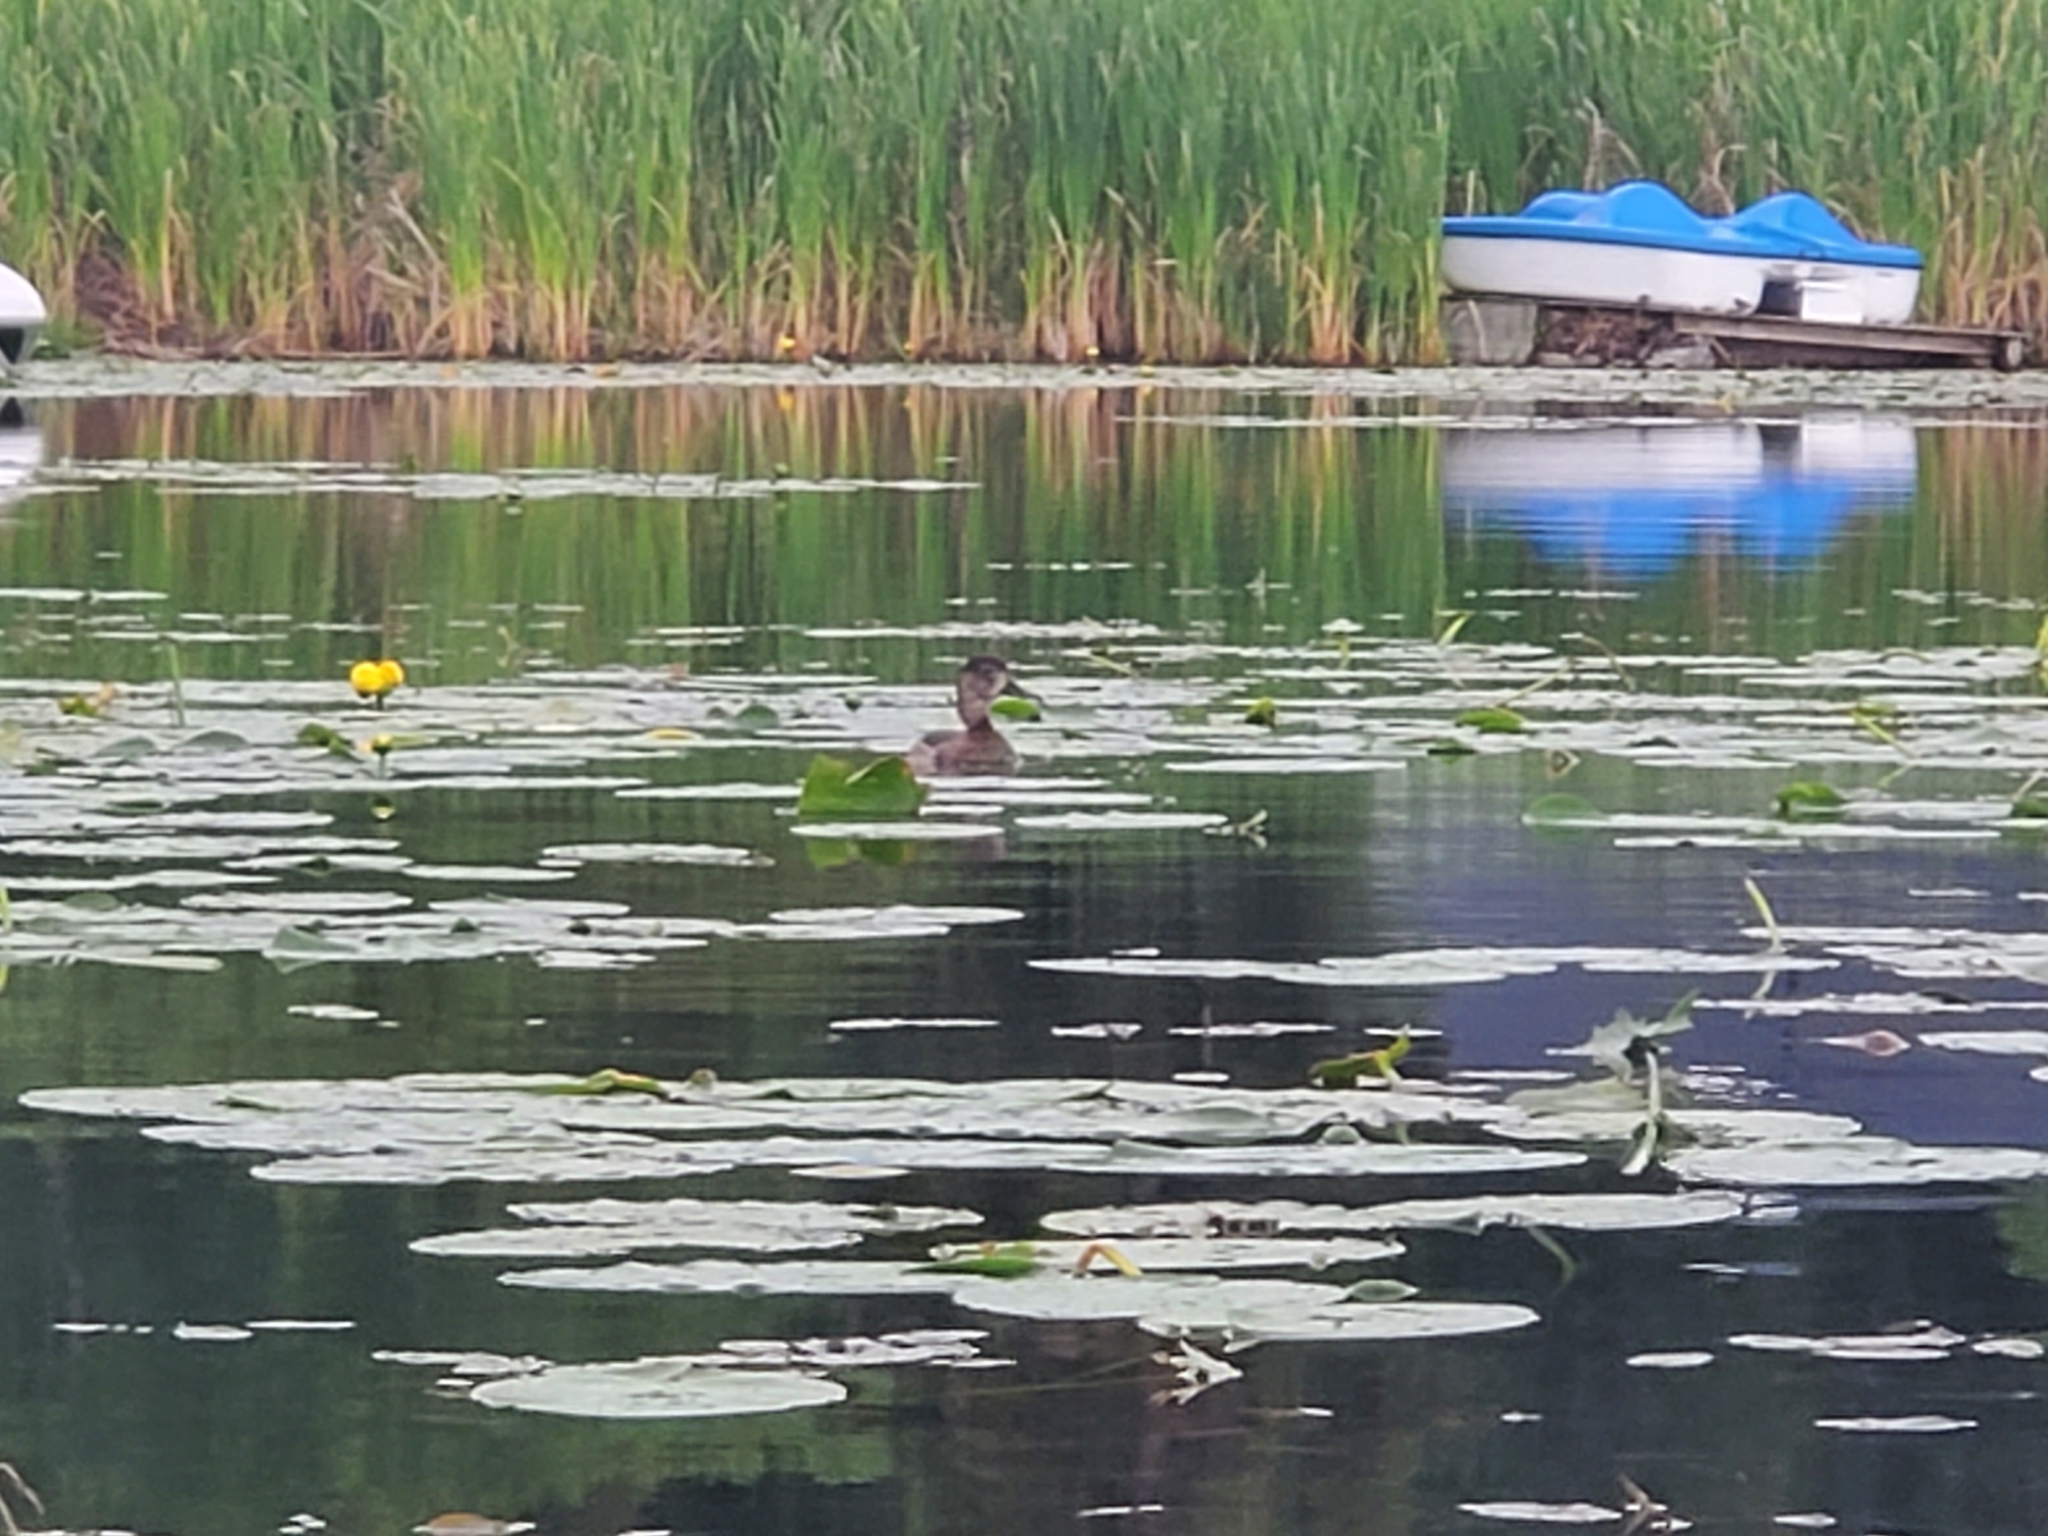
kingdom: Animalia
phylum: Chordata
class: Aves
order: Anseriformes
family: Anatidae
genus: Aythya
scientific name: Aythya collaris
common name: Ring-necked duck
